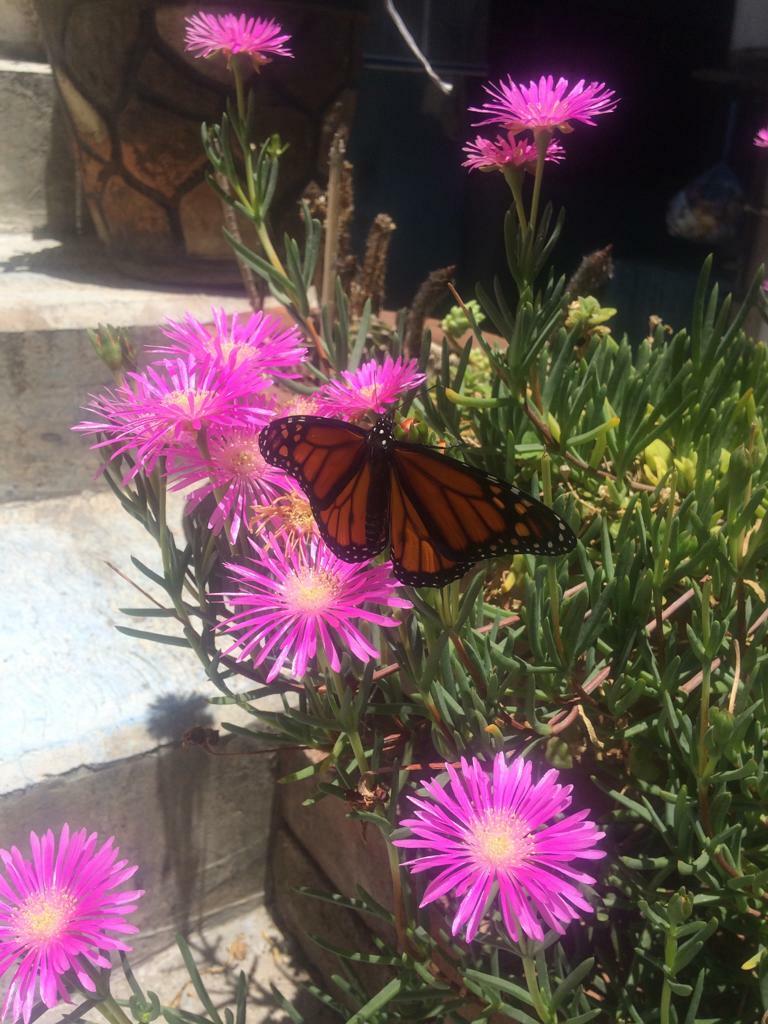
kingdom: Animalia
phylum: Arthropoda
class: Insecta
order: Lepidoptera
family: Nymphalidae
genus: Danaus
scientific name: Danaus plexippus
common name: Monarch
